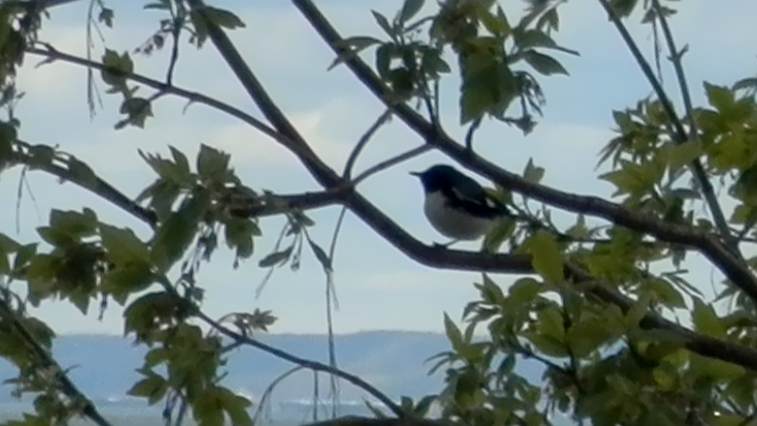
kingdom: Animalia
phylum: Chordata
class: Aves
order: Passeriformes
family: Parulidae
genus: Setophaga
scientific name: Setophaga caerulescens
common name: Black-throated blue warbler
